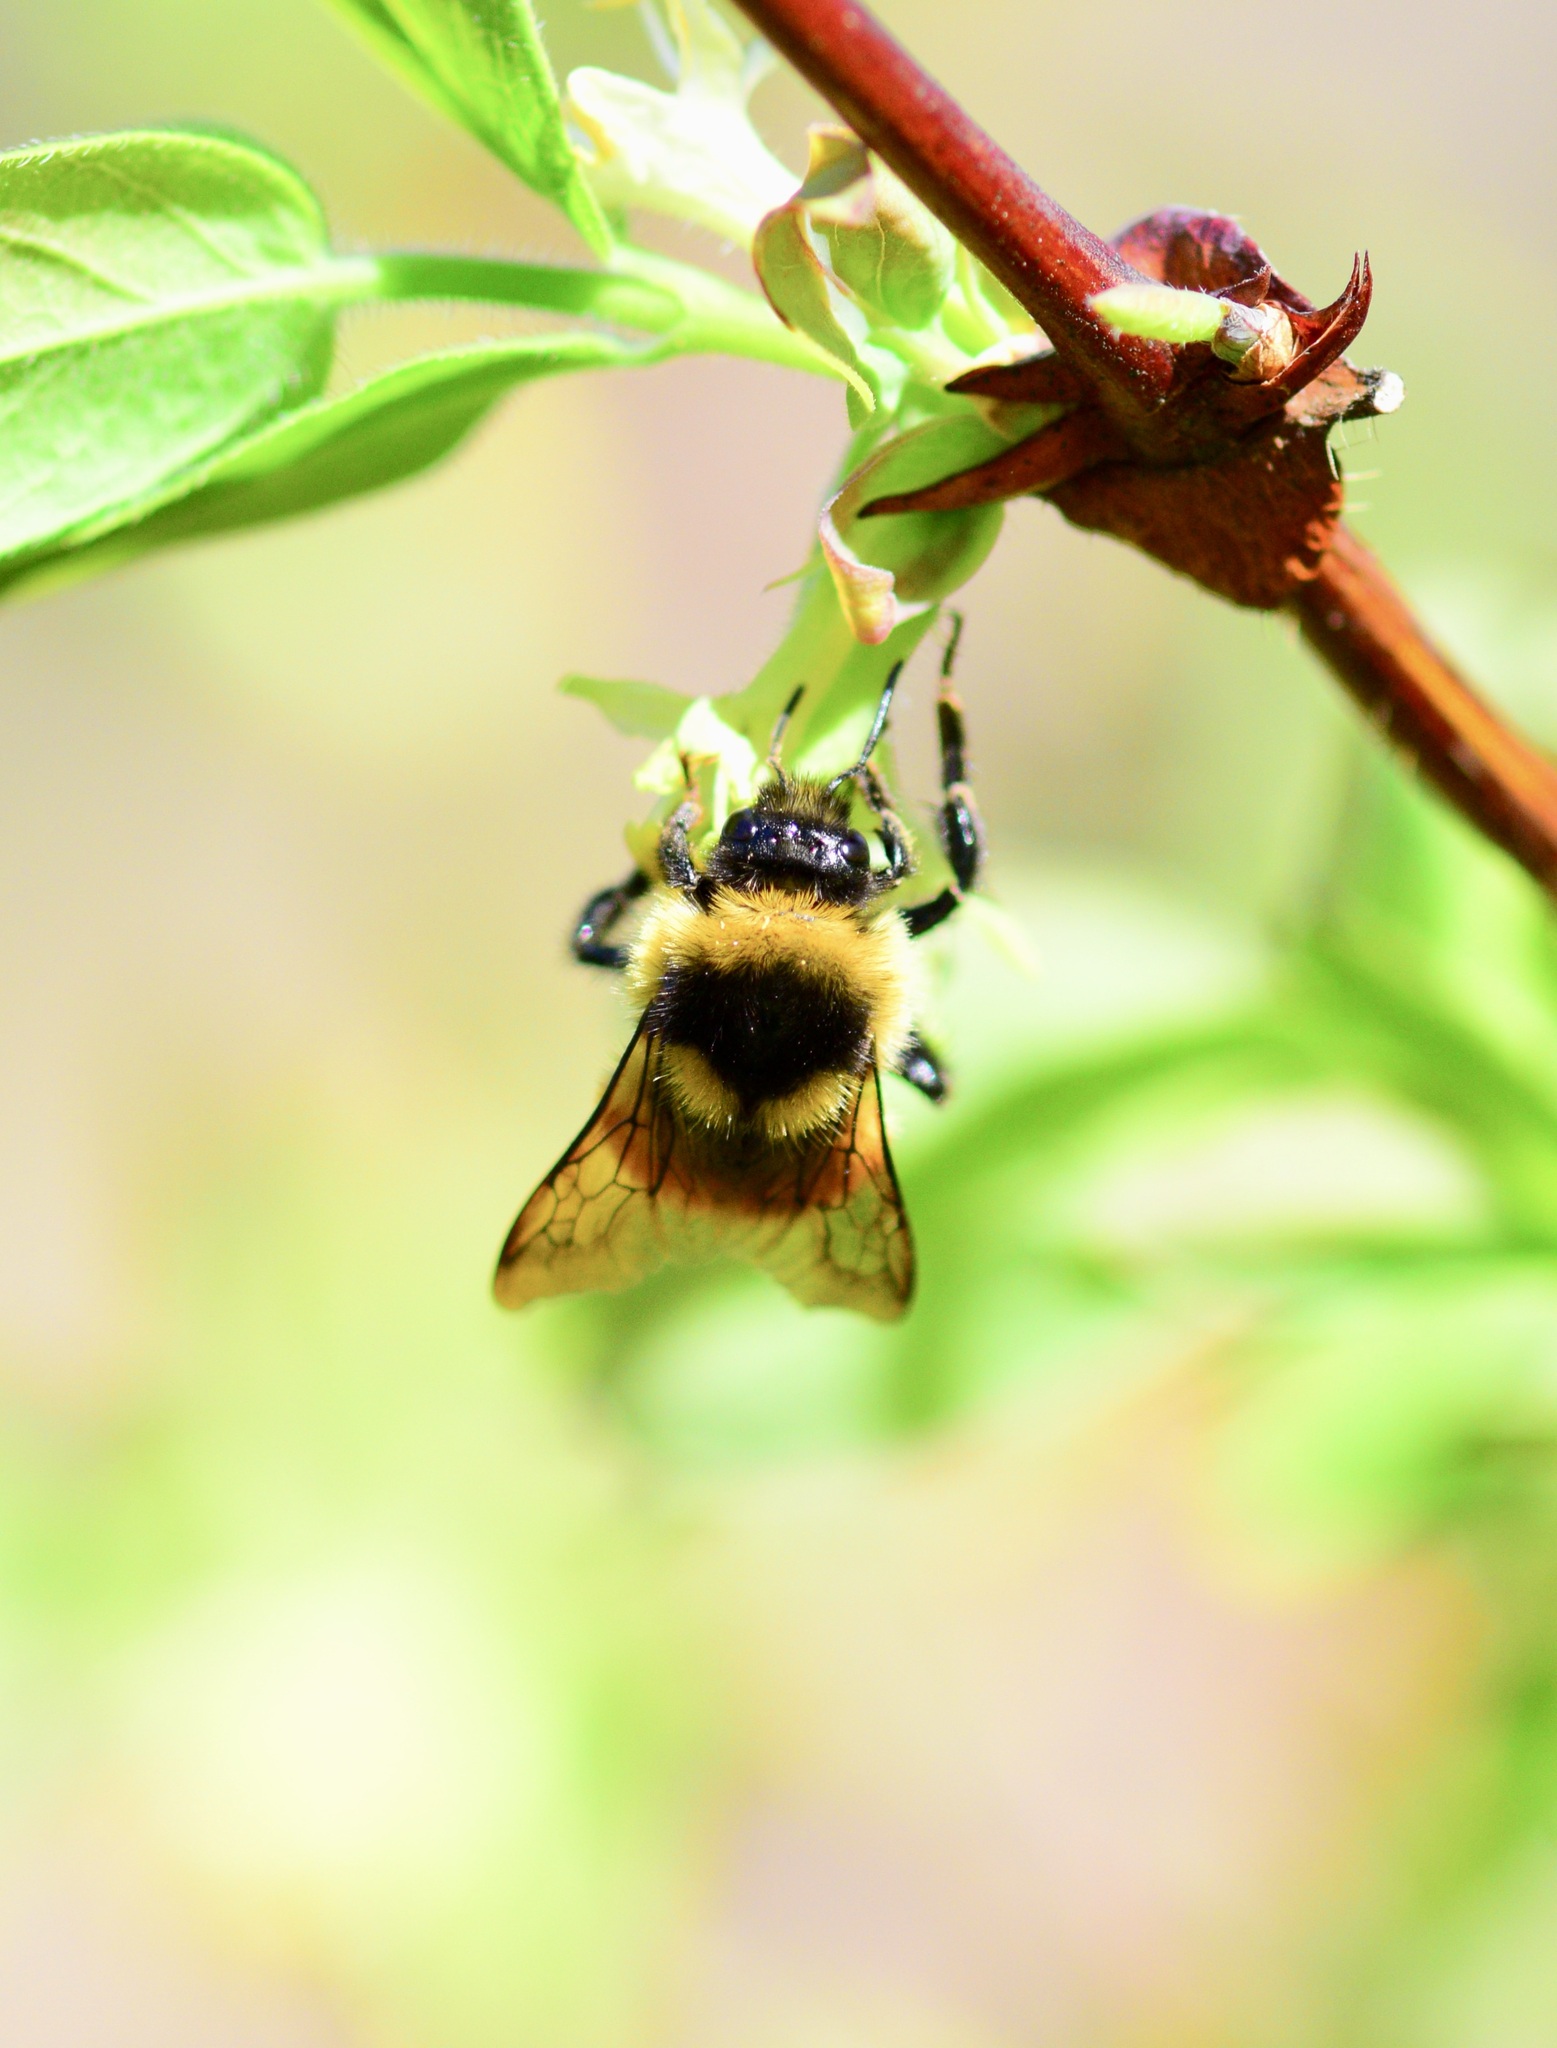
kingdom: Animalia
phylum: Arthropoda
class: Insecta
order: Hymenoptera
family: Apidae
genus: Bombus
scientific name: Bombus ternarius
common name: Tri-colored bumble bee
